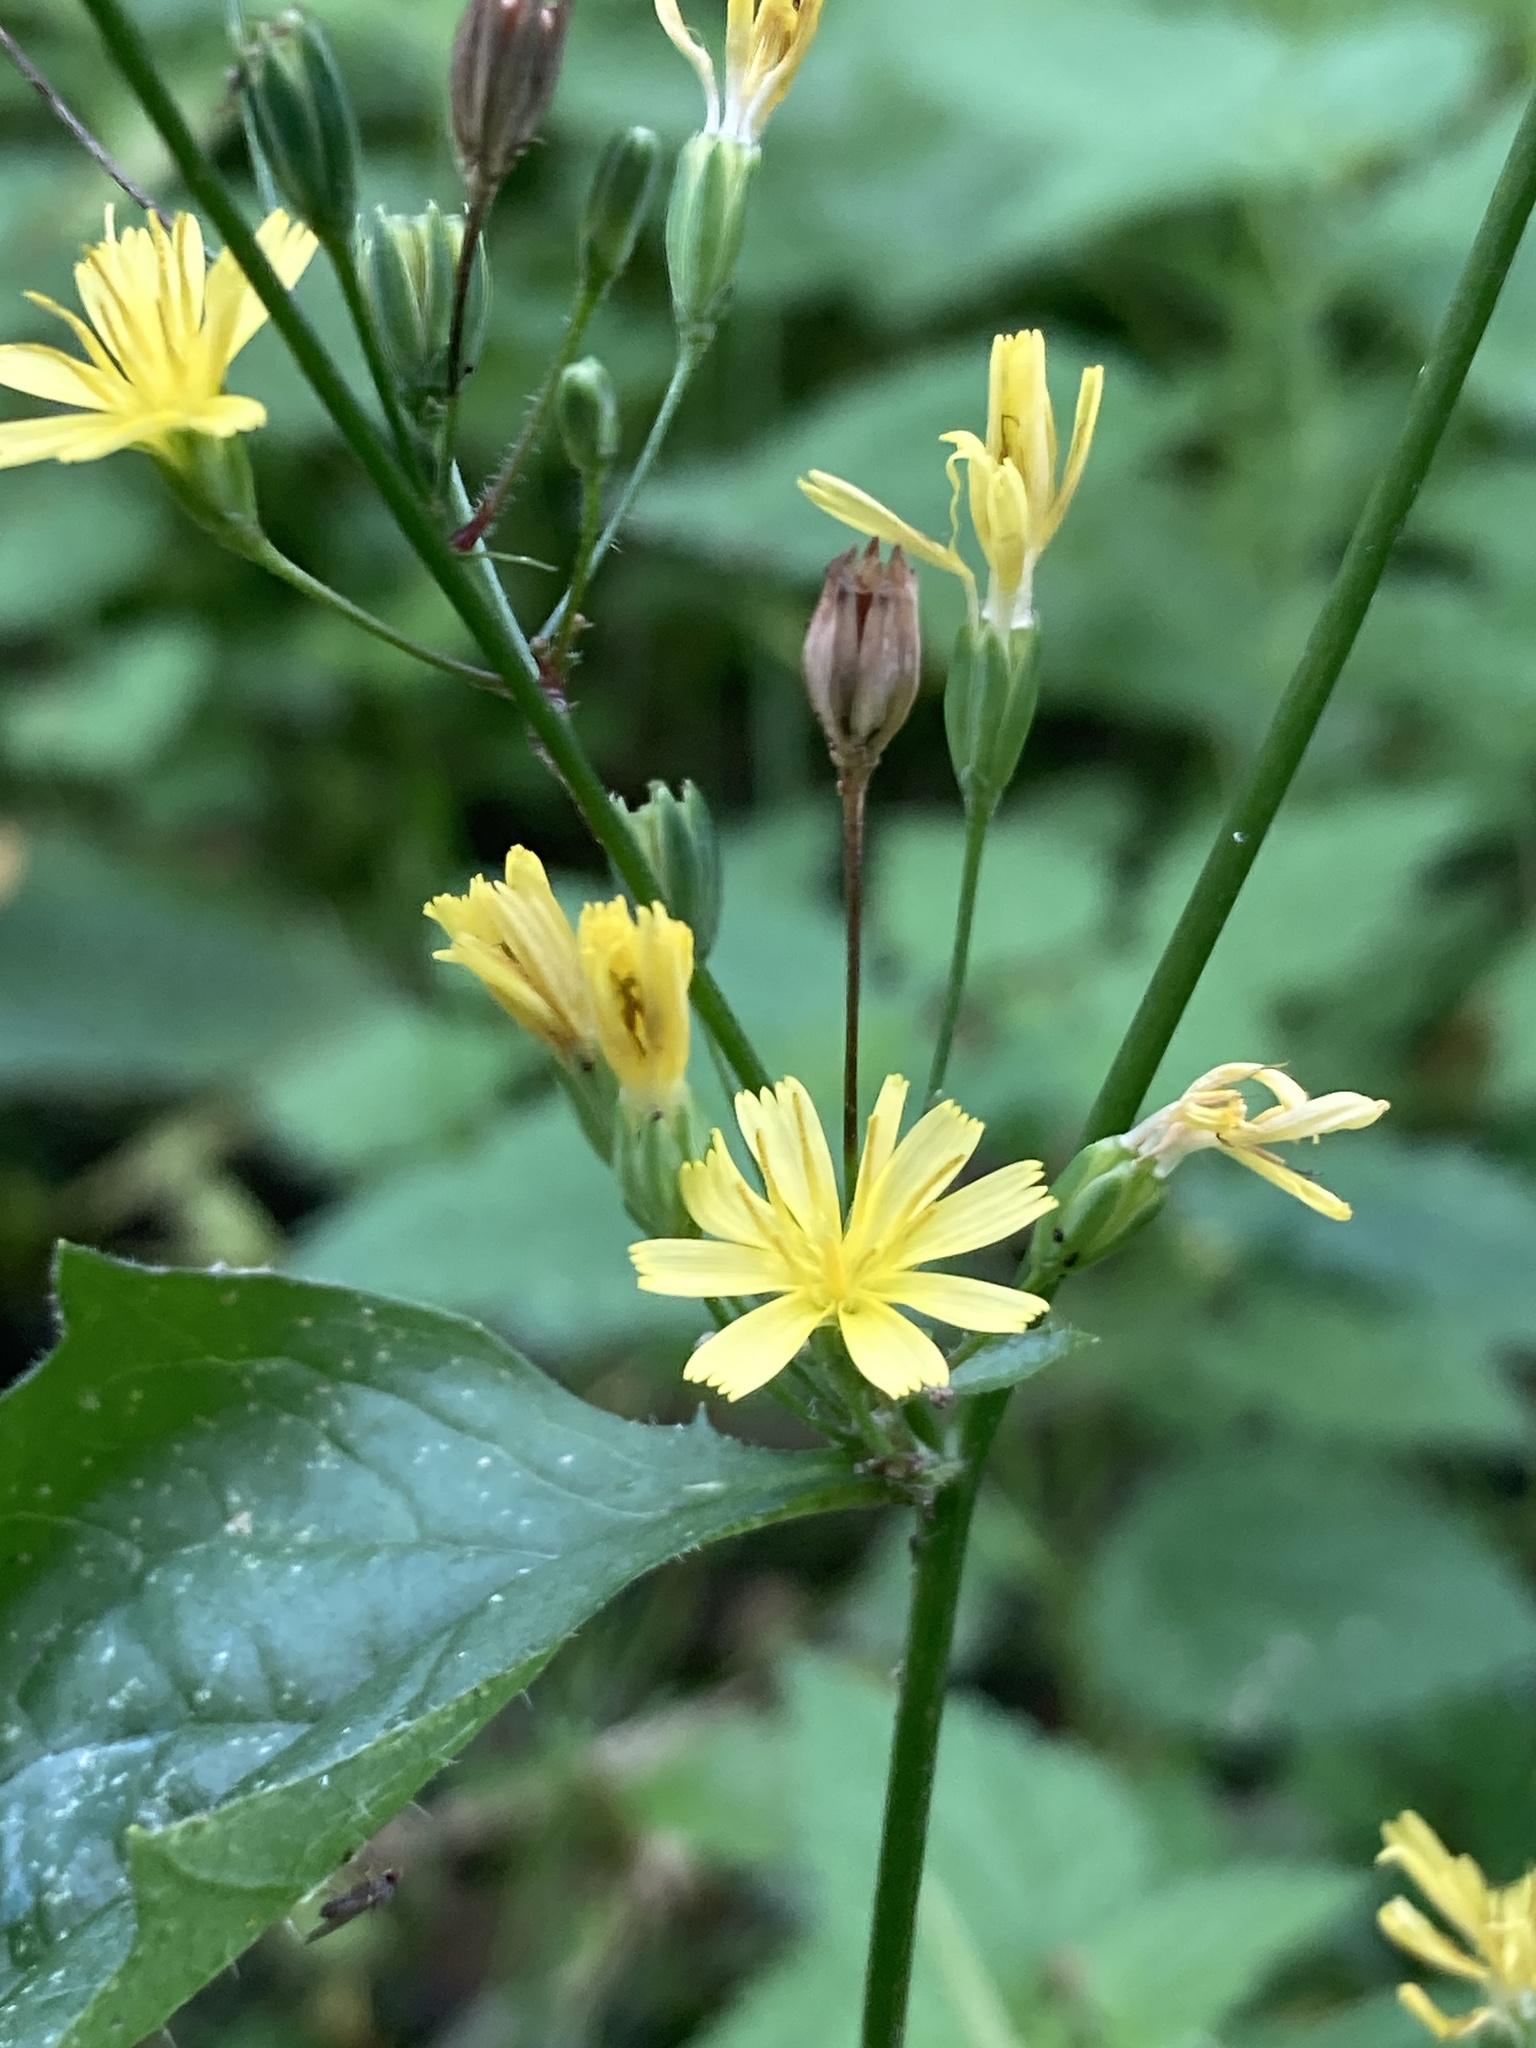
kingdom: Plantae
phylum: Tracheophyta
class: Magnoliopsida
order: Asterales
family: Asteraceae
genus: Lapsana
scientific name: Lapsana communis
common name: Nipplewort
